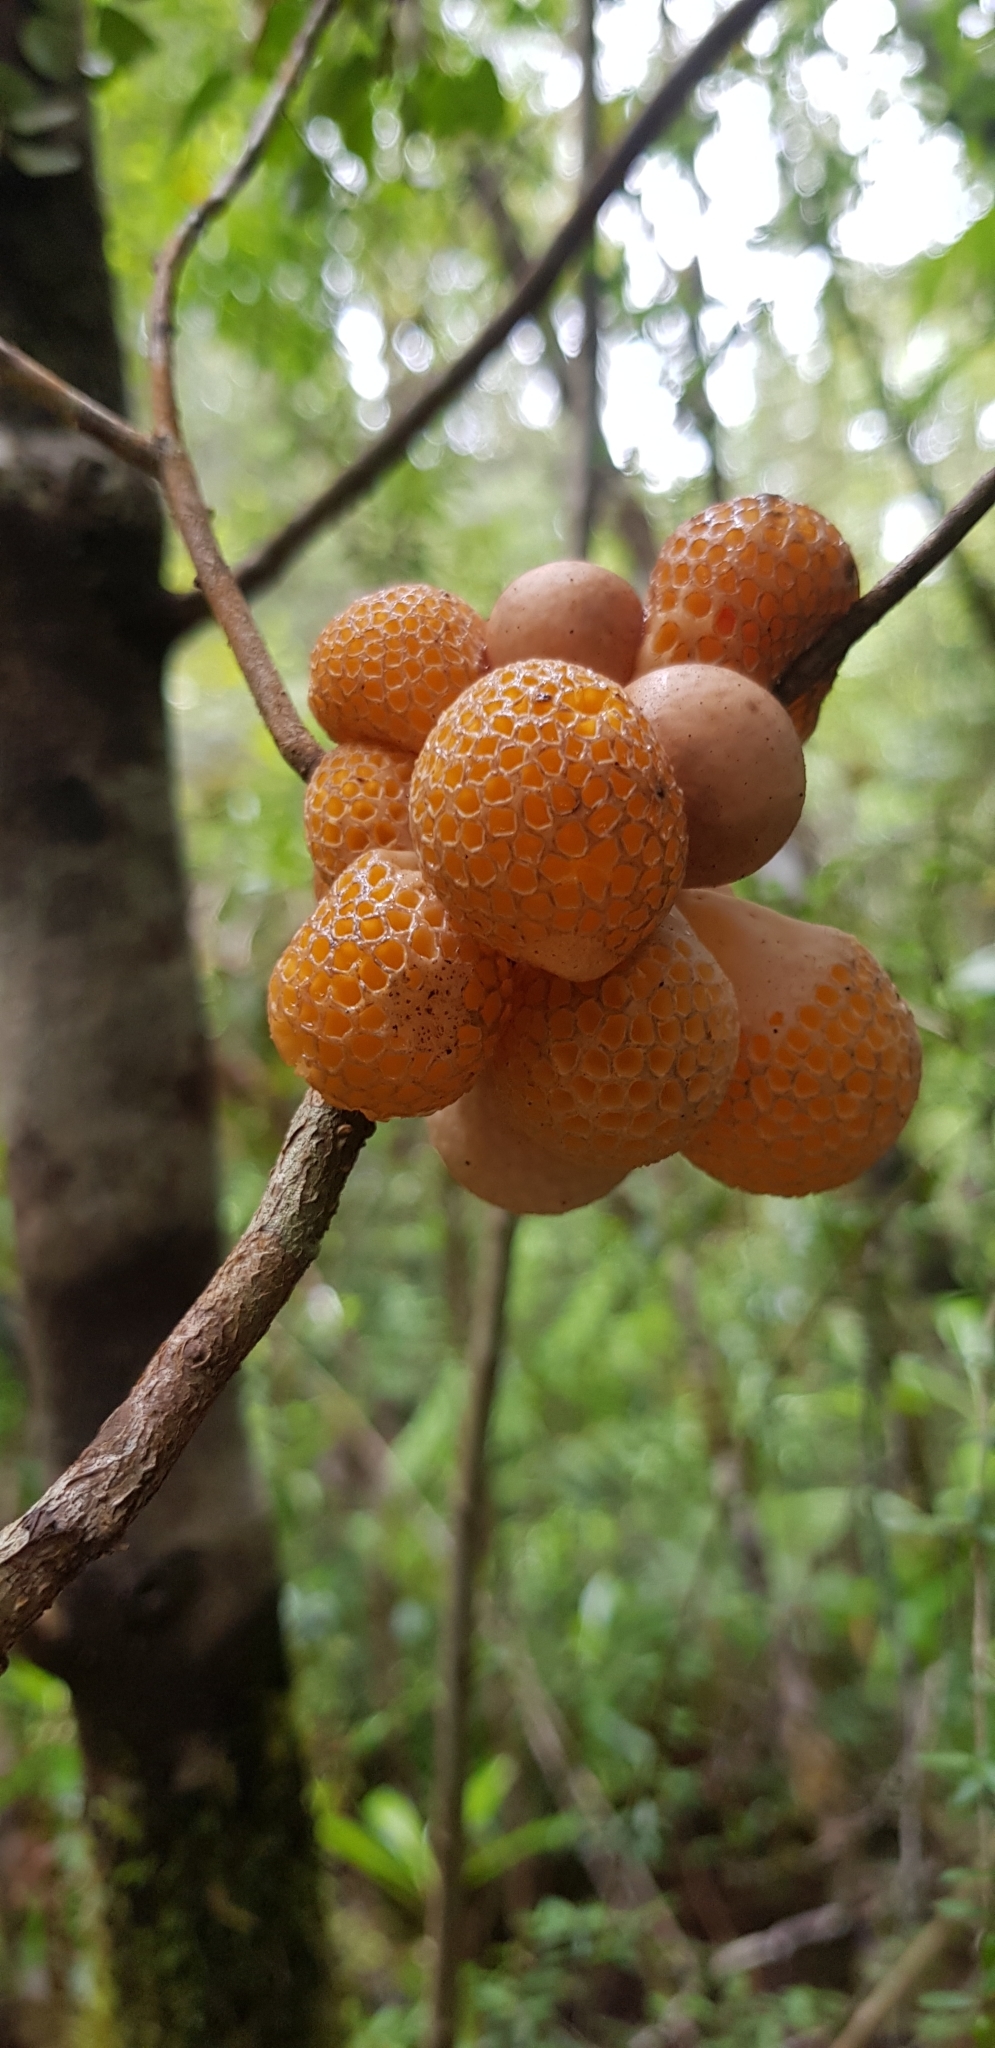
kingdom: Fungi
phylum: Ascomycota
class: Leotiomycetes
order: Cyttariales
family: Cyttariaceae
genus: Cyttaria
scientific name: Cyttaria gunnii
